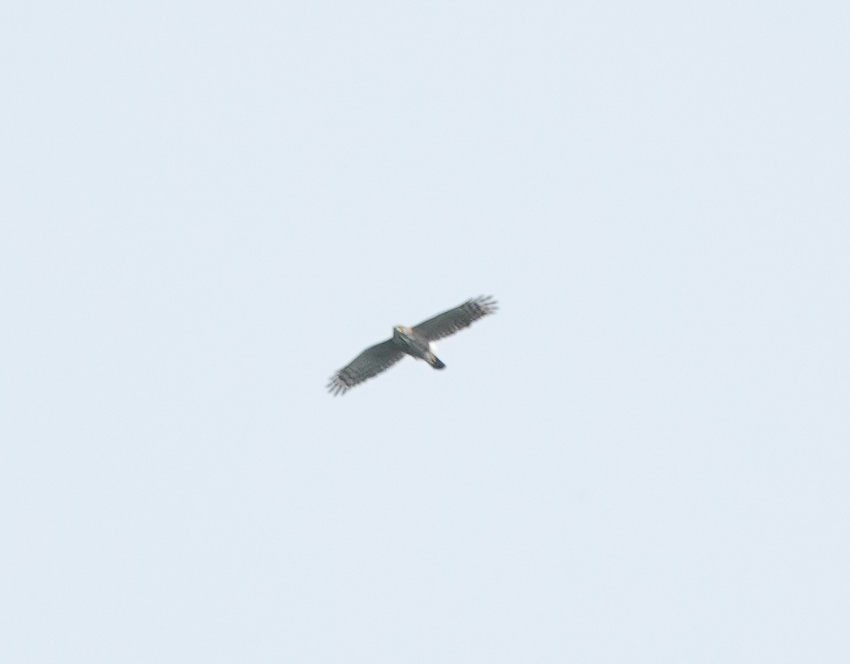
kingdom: Animalia
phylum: Chordata
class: Aves
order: Accipitriformes
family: Accipitridae
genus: Accipiter
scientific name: Accipiter trivirgatus
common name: Crested goshawk
